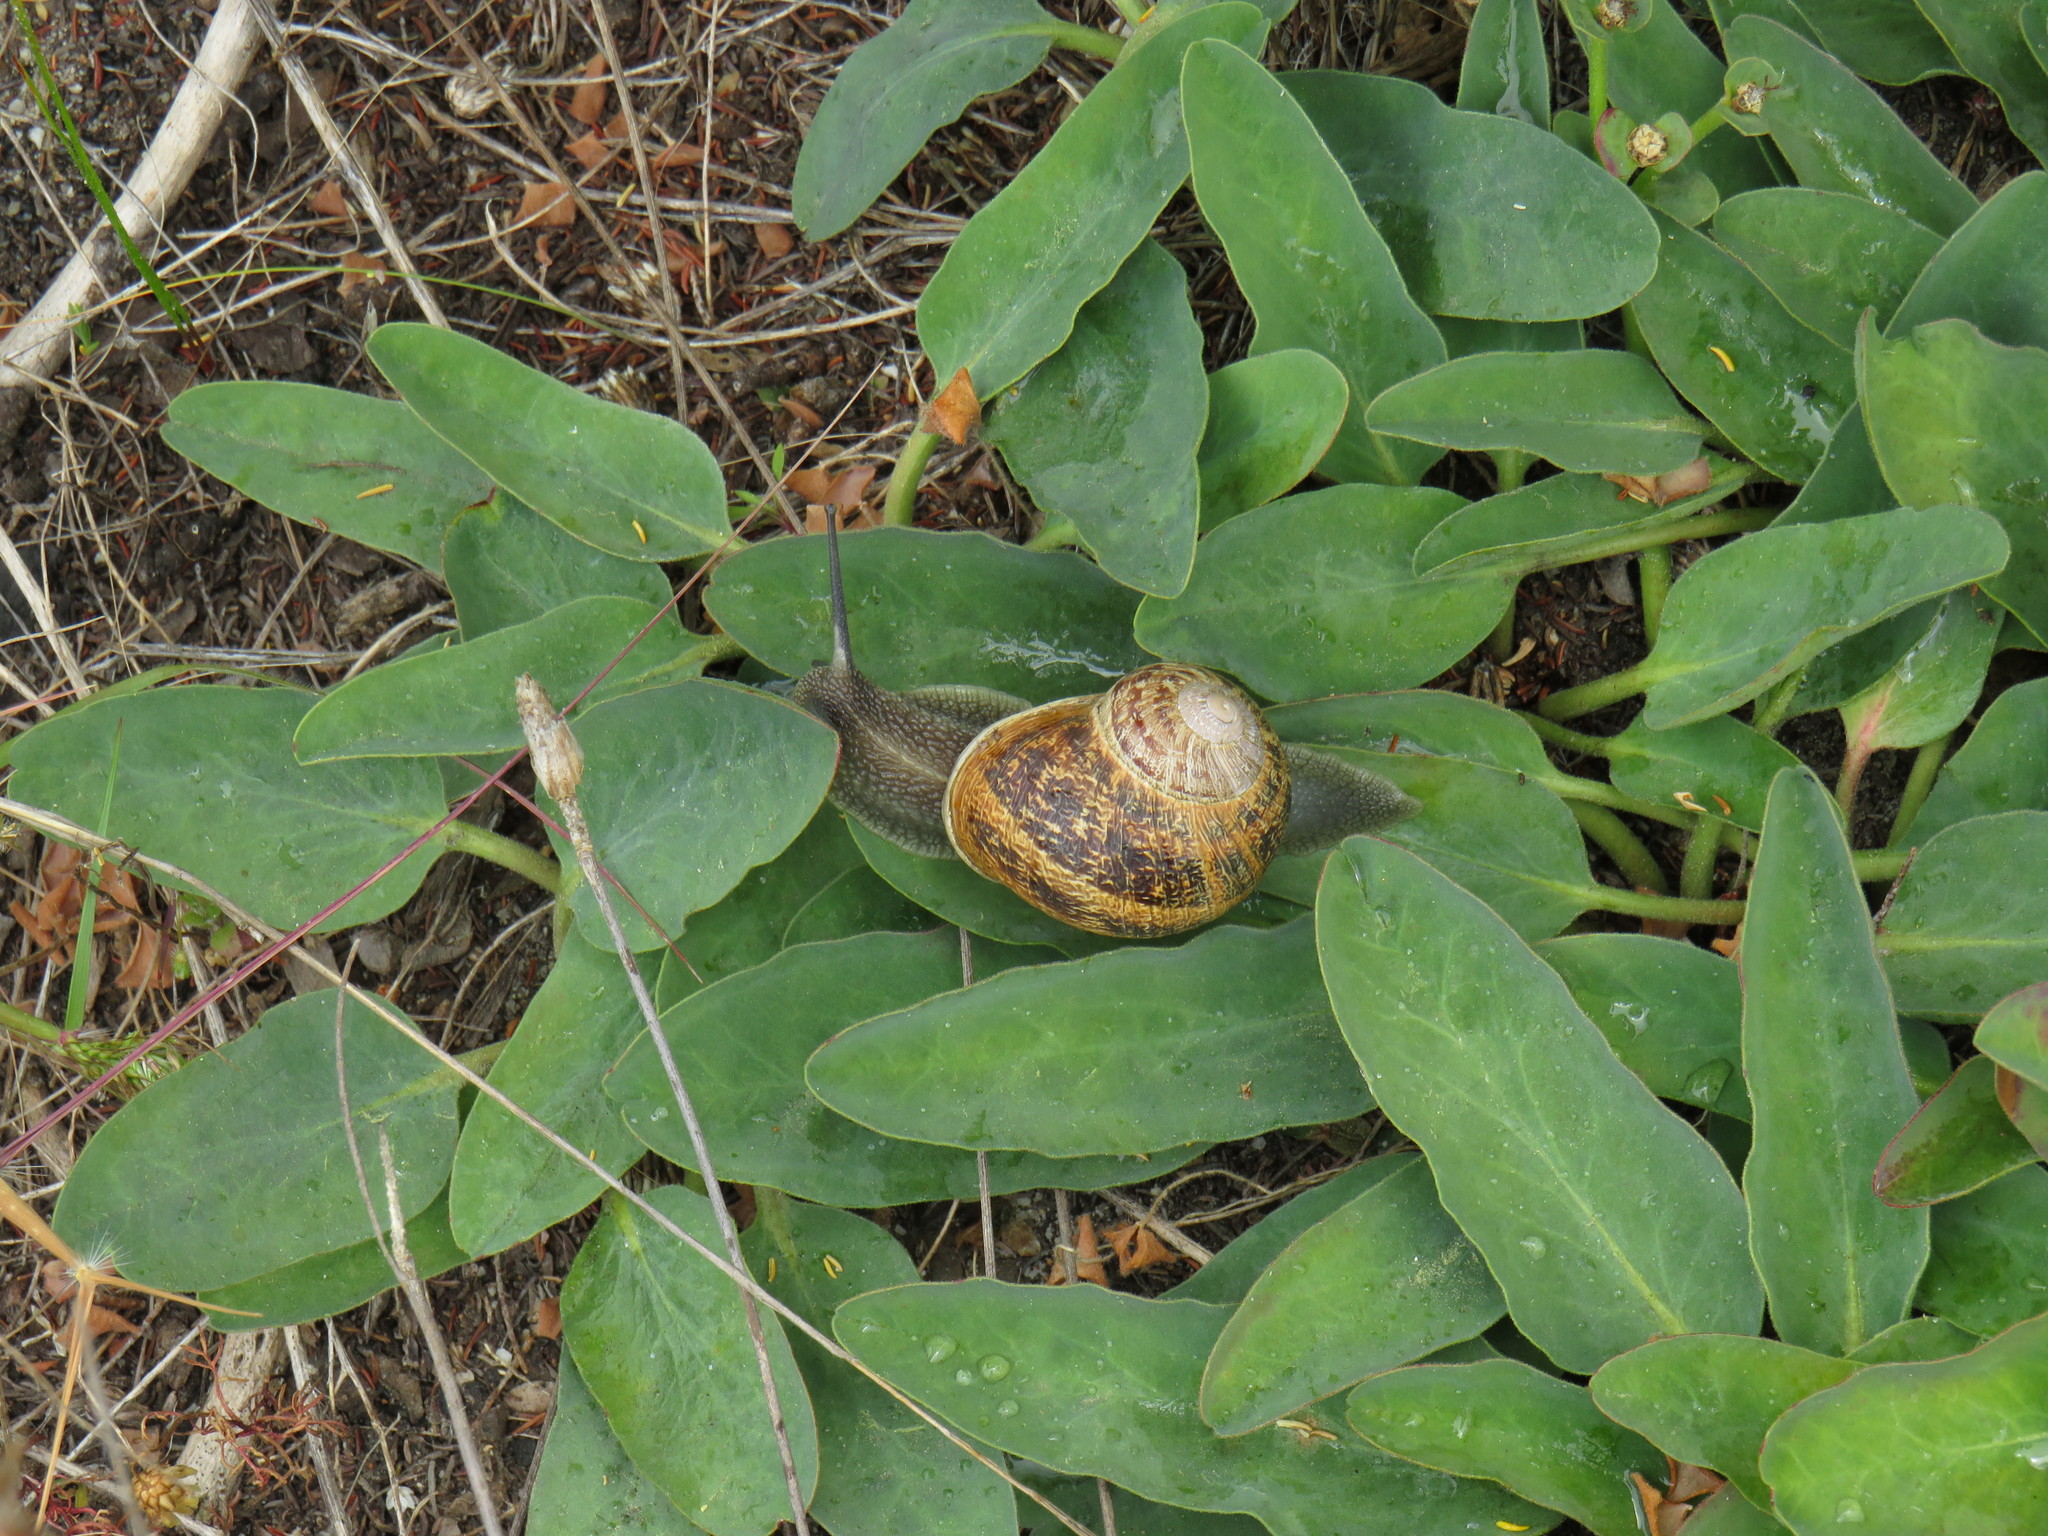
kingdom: Animalia
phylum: Mollusca
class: Gastropoda
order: Stylommatophora
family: Helicidae
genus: Cornu
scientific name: Cornu aspersum
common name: Brown garden snail
